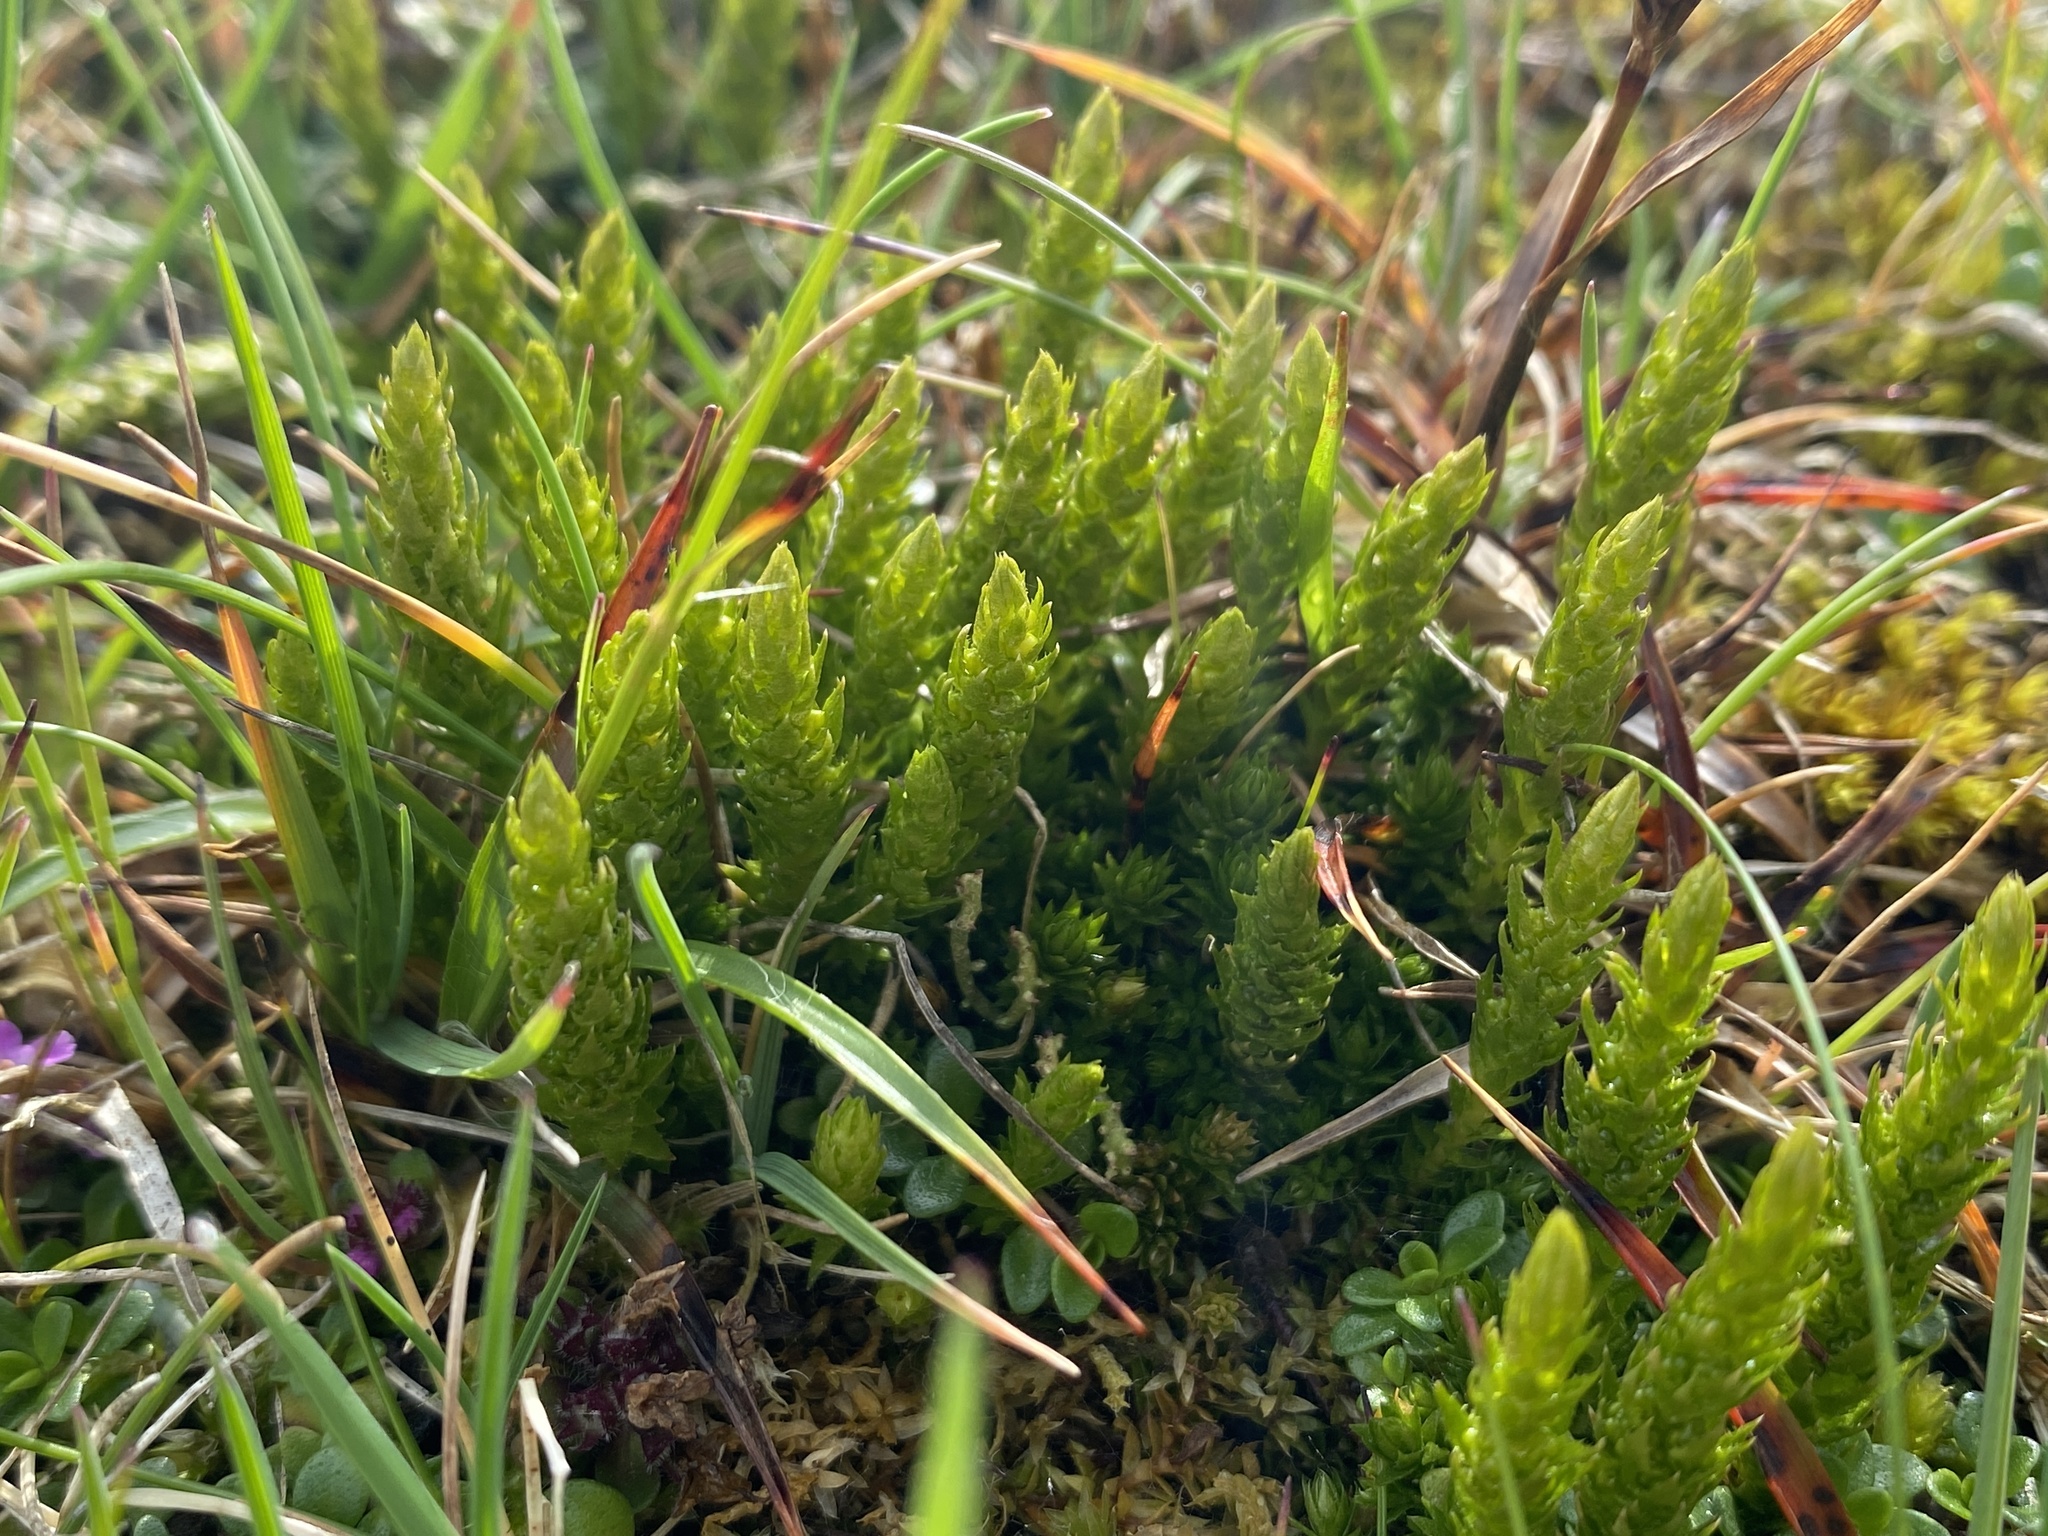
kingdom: Plantae
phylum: Tracheophyta
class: Lycopodiopsida
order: Selaginellales
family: Selaginellaceae
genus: Selaginella
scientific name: Selaginella selaginoides
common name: Prickly mountain-moss
